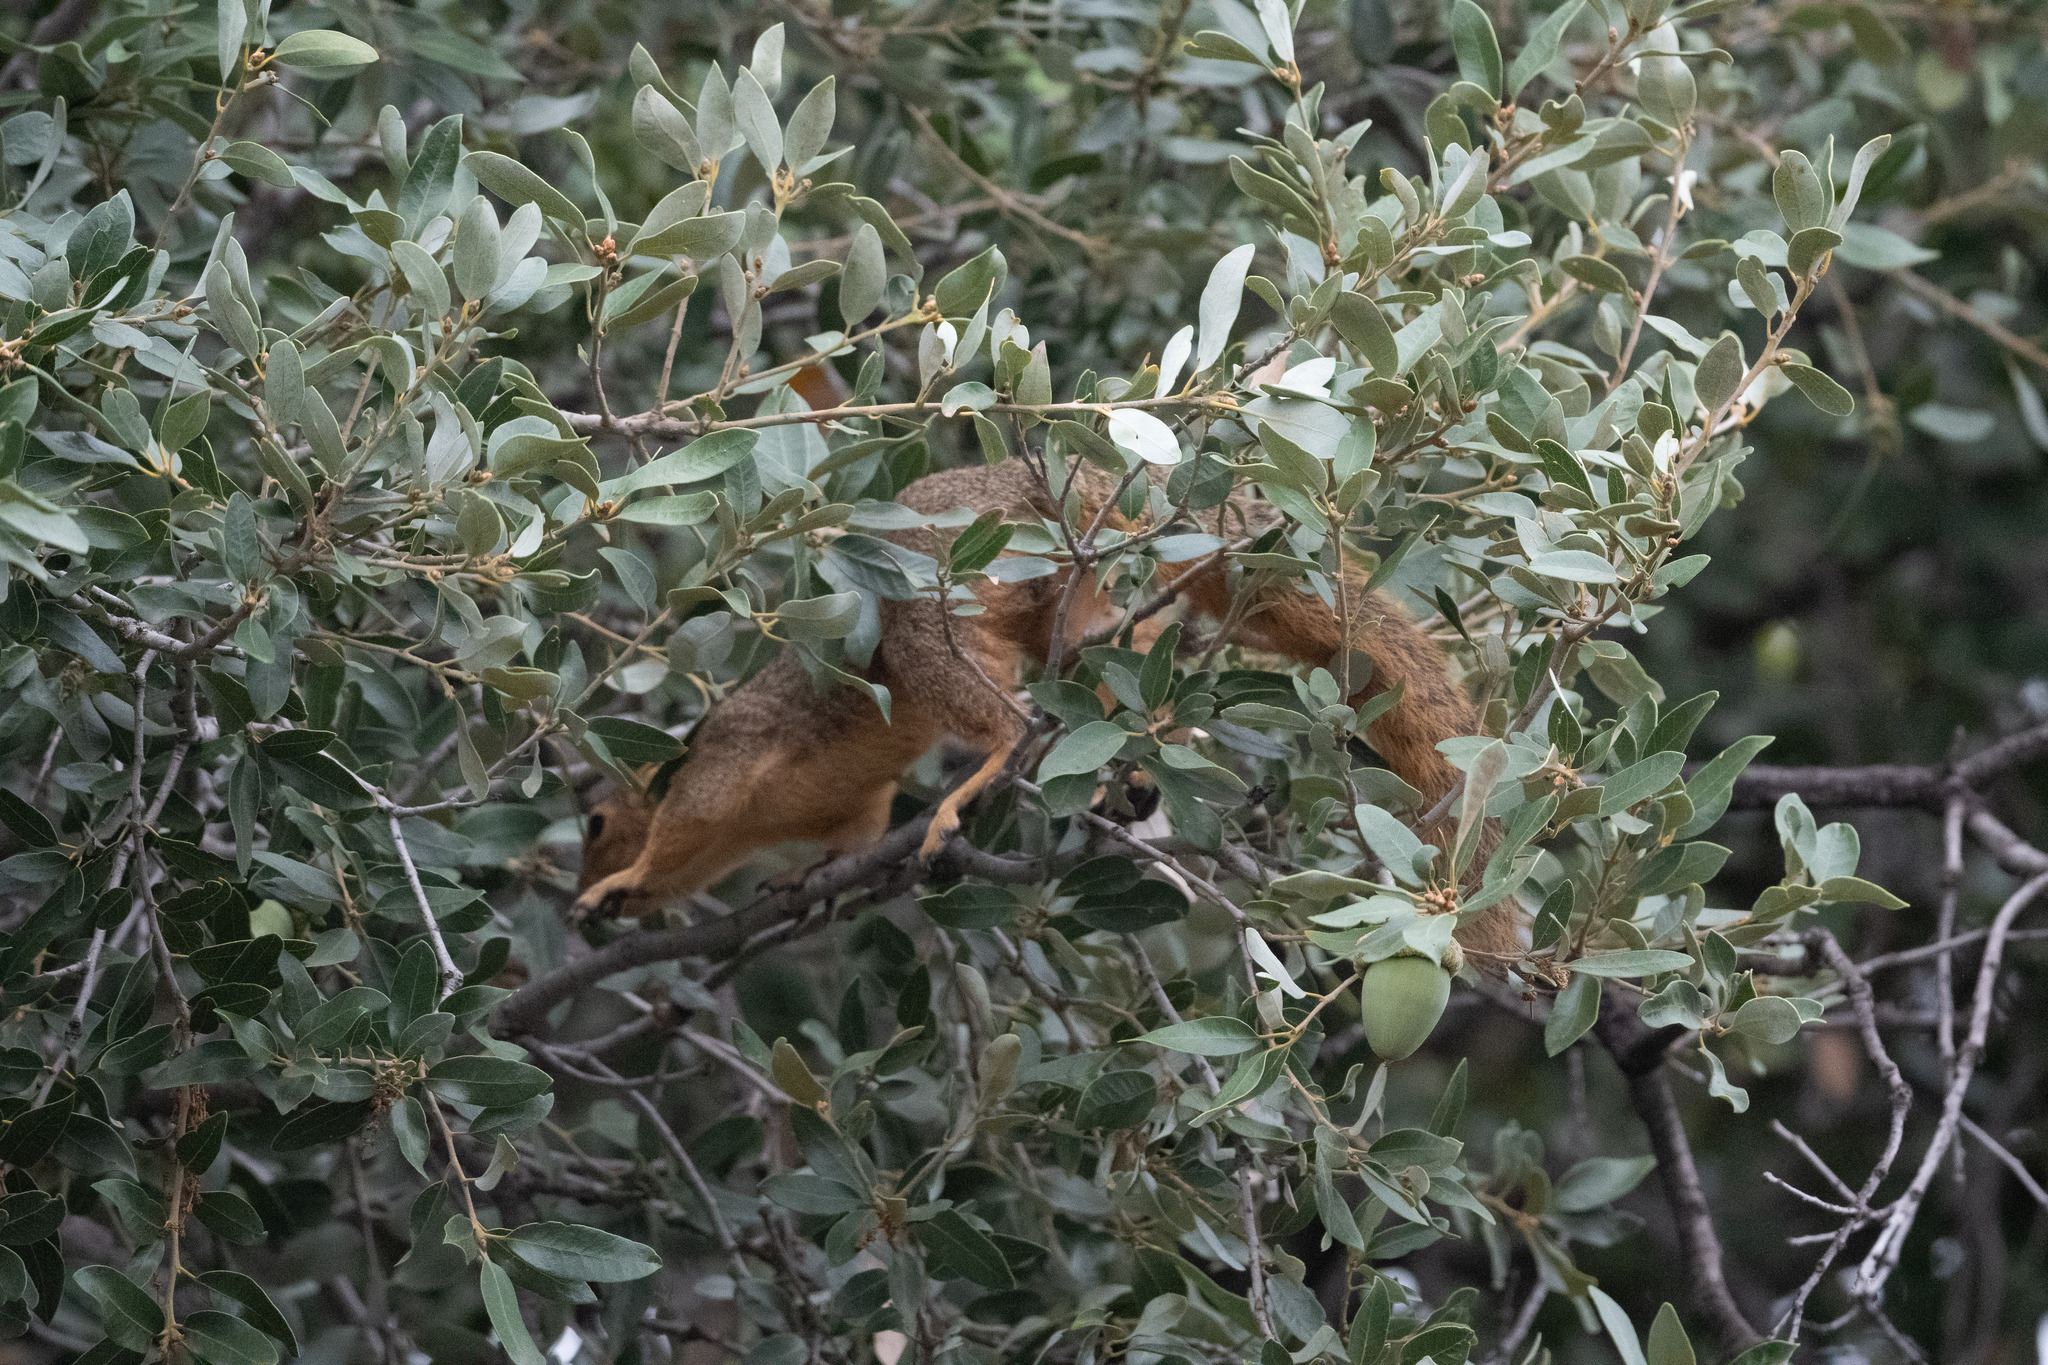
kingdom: Animalia
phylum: Chordata
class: Mammalia
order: Rodentia
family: Sciuridae
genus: Sciurus
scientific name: Sciurus niger
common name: Fox squirrel
